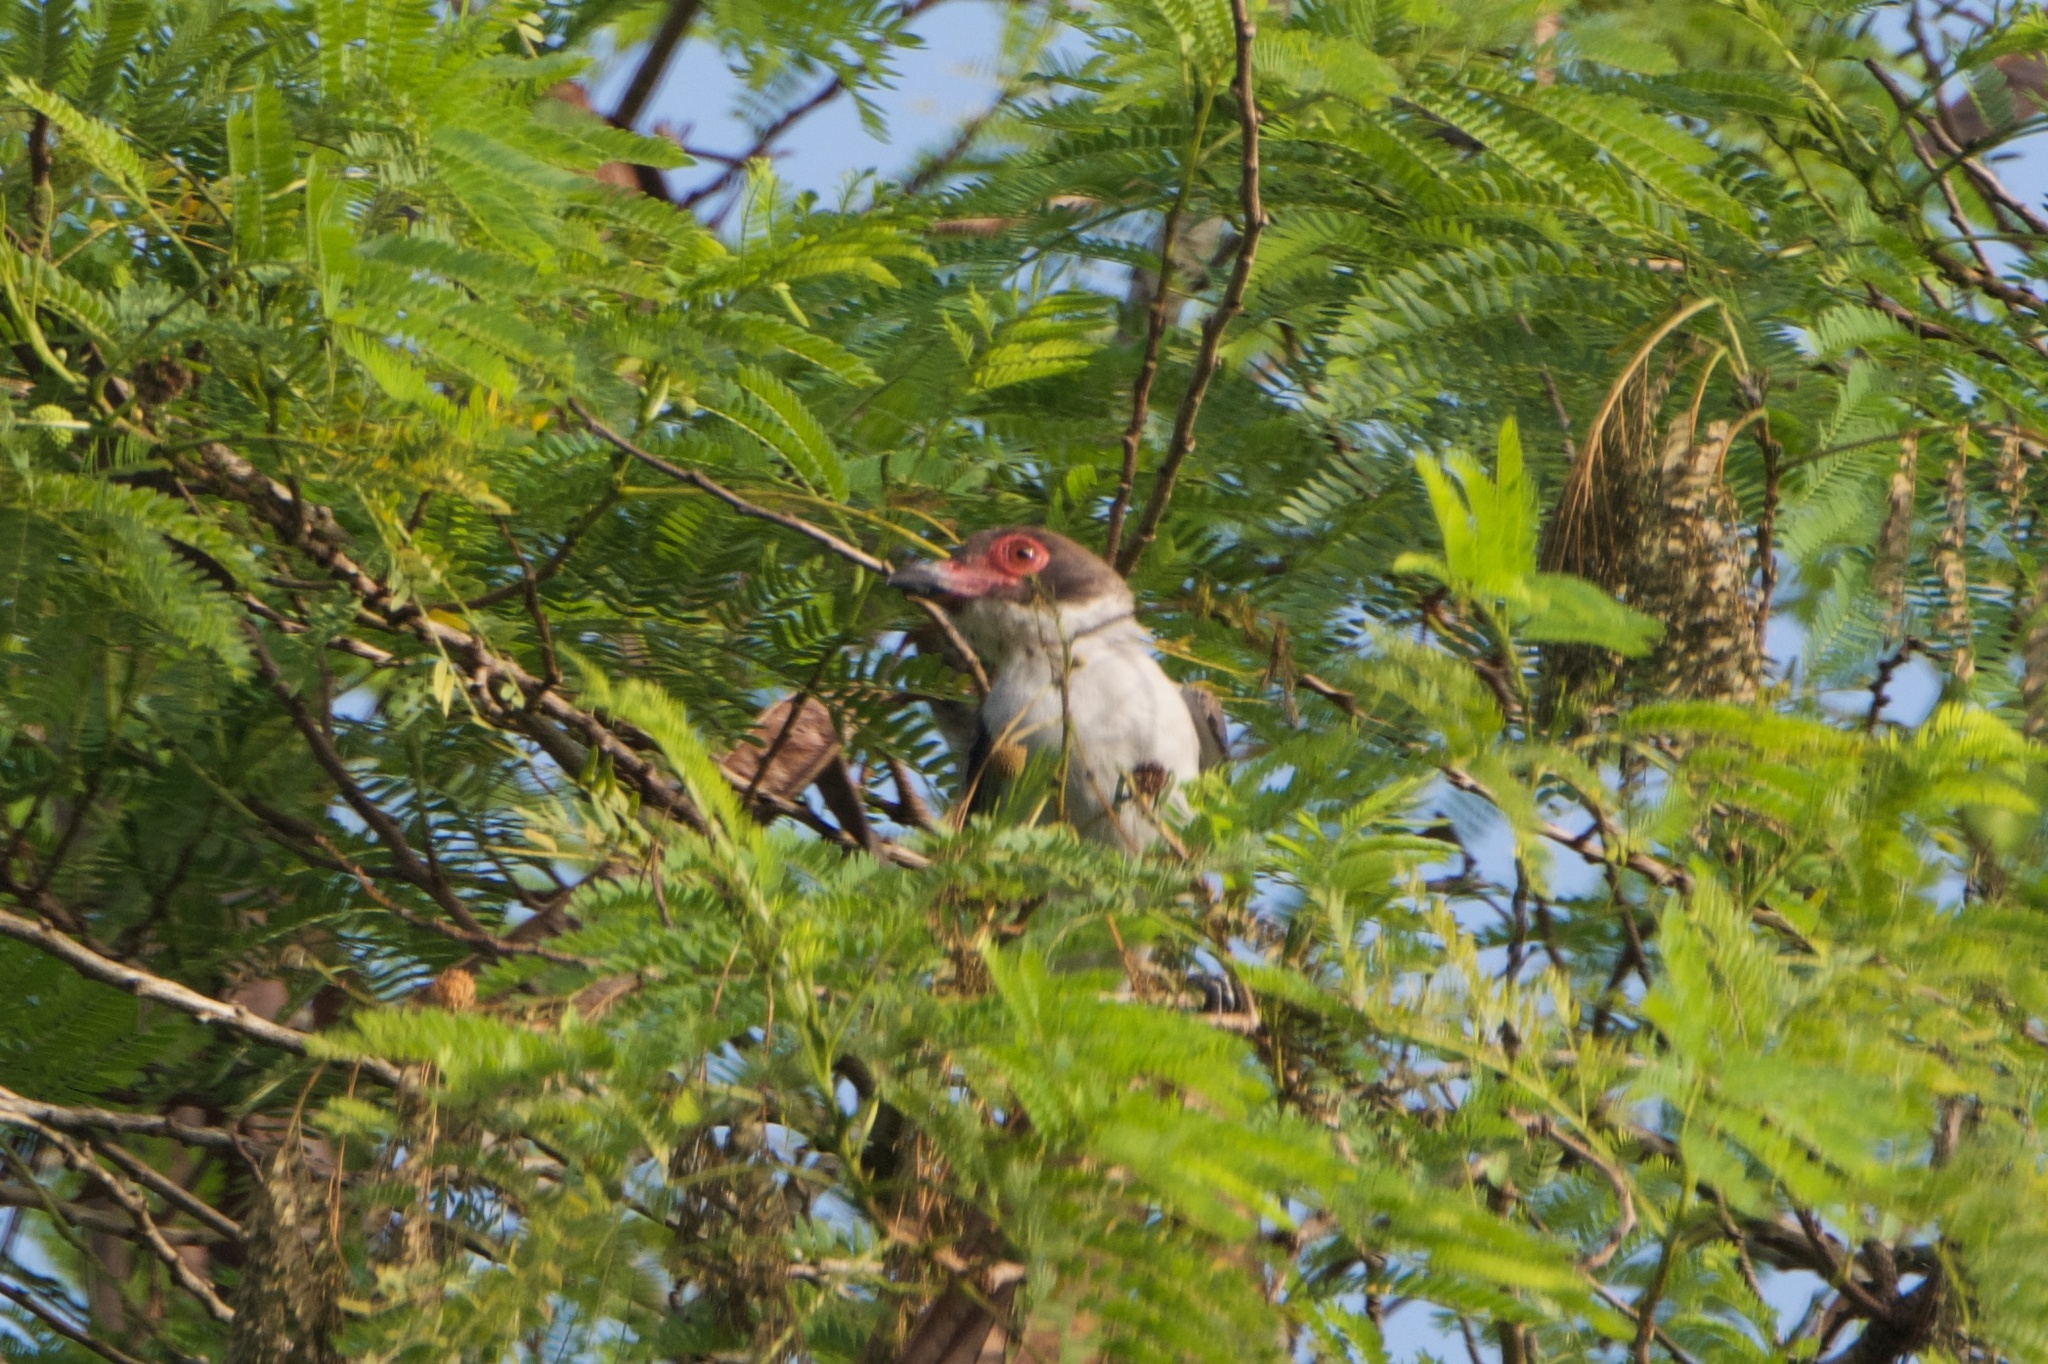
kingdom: Animalia
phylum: Chordata
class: Aves
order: Passeriformes
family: Cotingidae
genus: Tityra
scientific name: Tityra semifasciata
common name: Masked tityra
